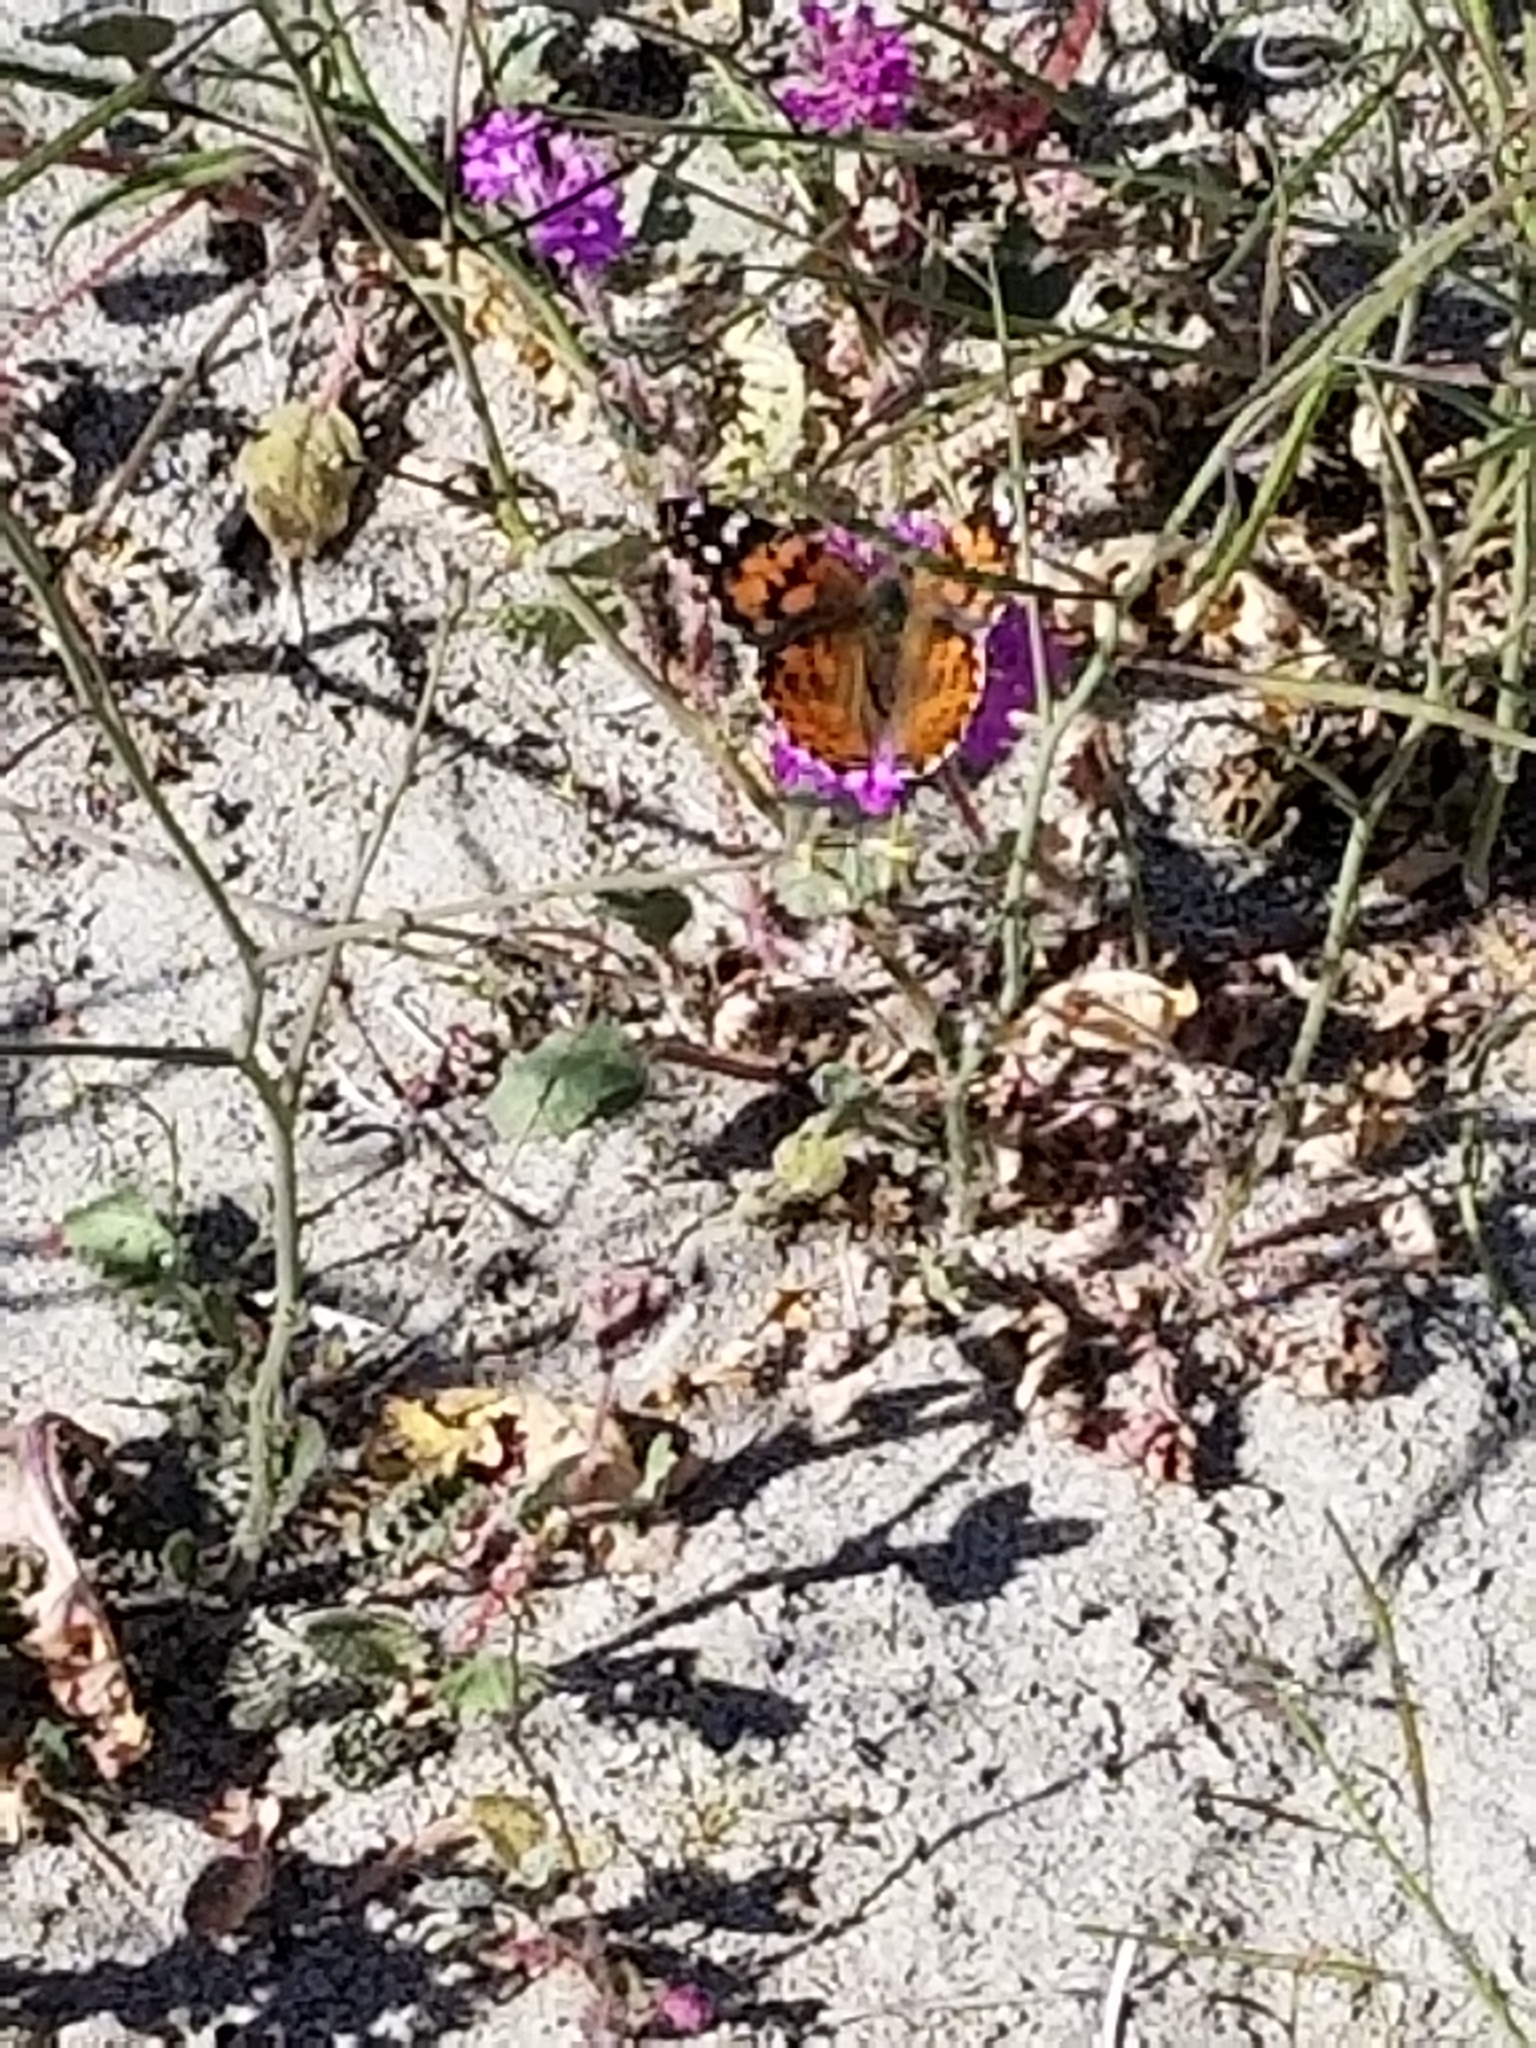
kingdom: Animalia
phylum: Arthropoda
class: Insecta
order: Lepidoptera
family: Nymphalidae
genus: Vanessa
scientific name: Vanessa cardui
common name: Painted lady
